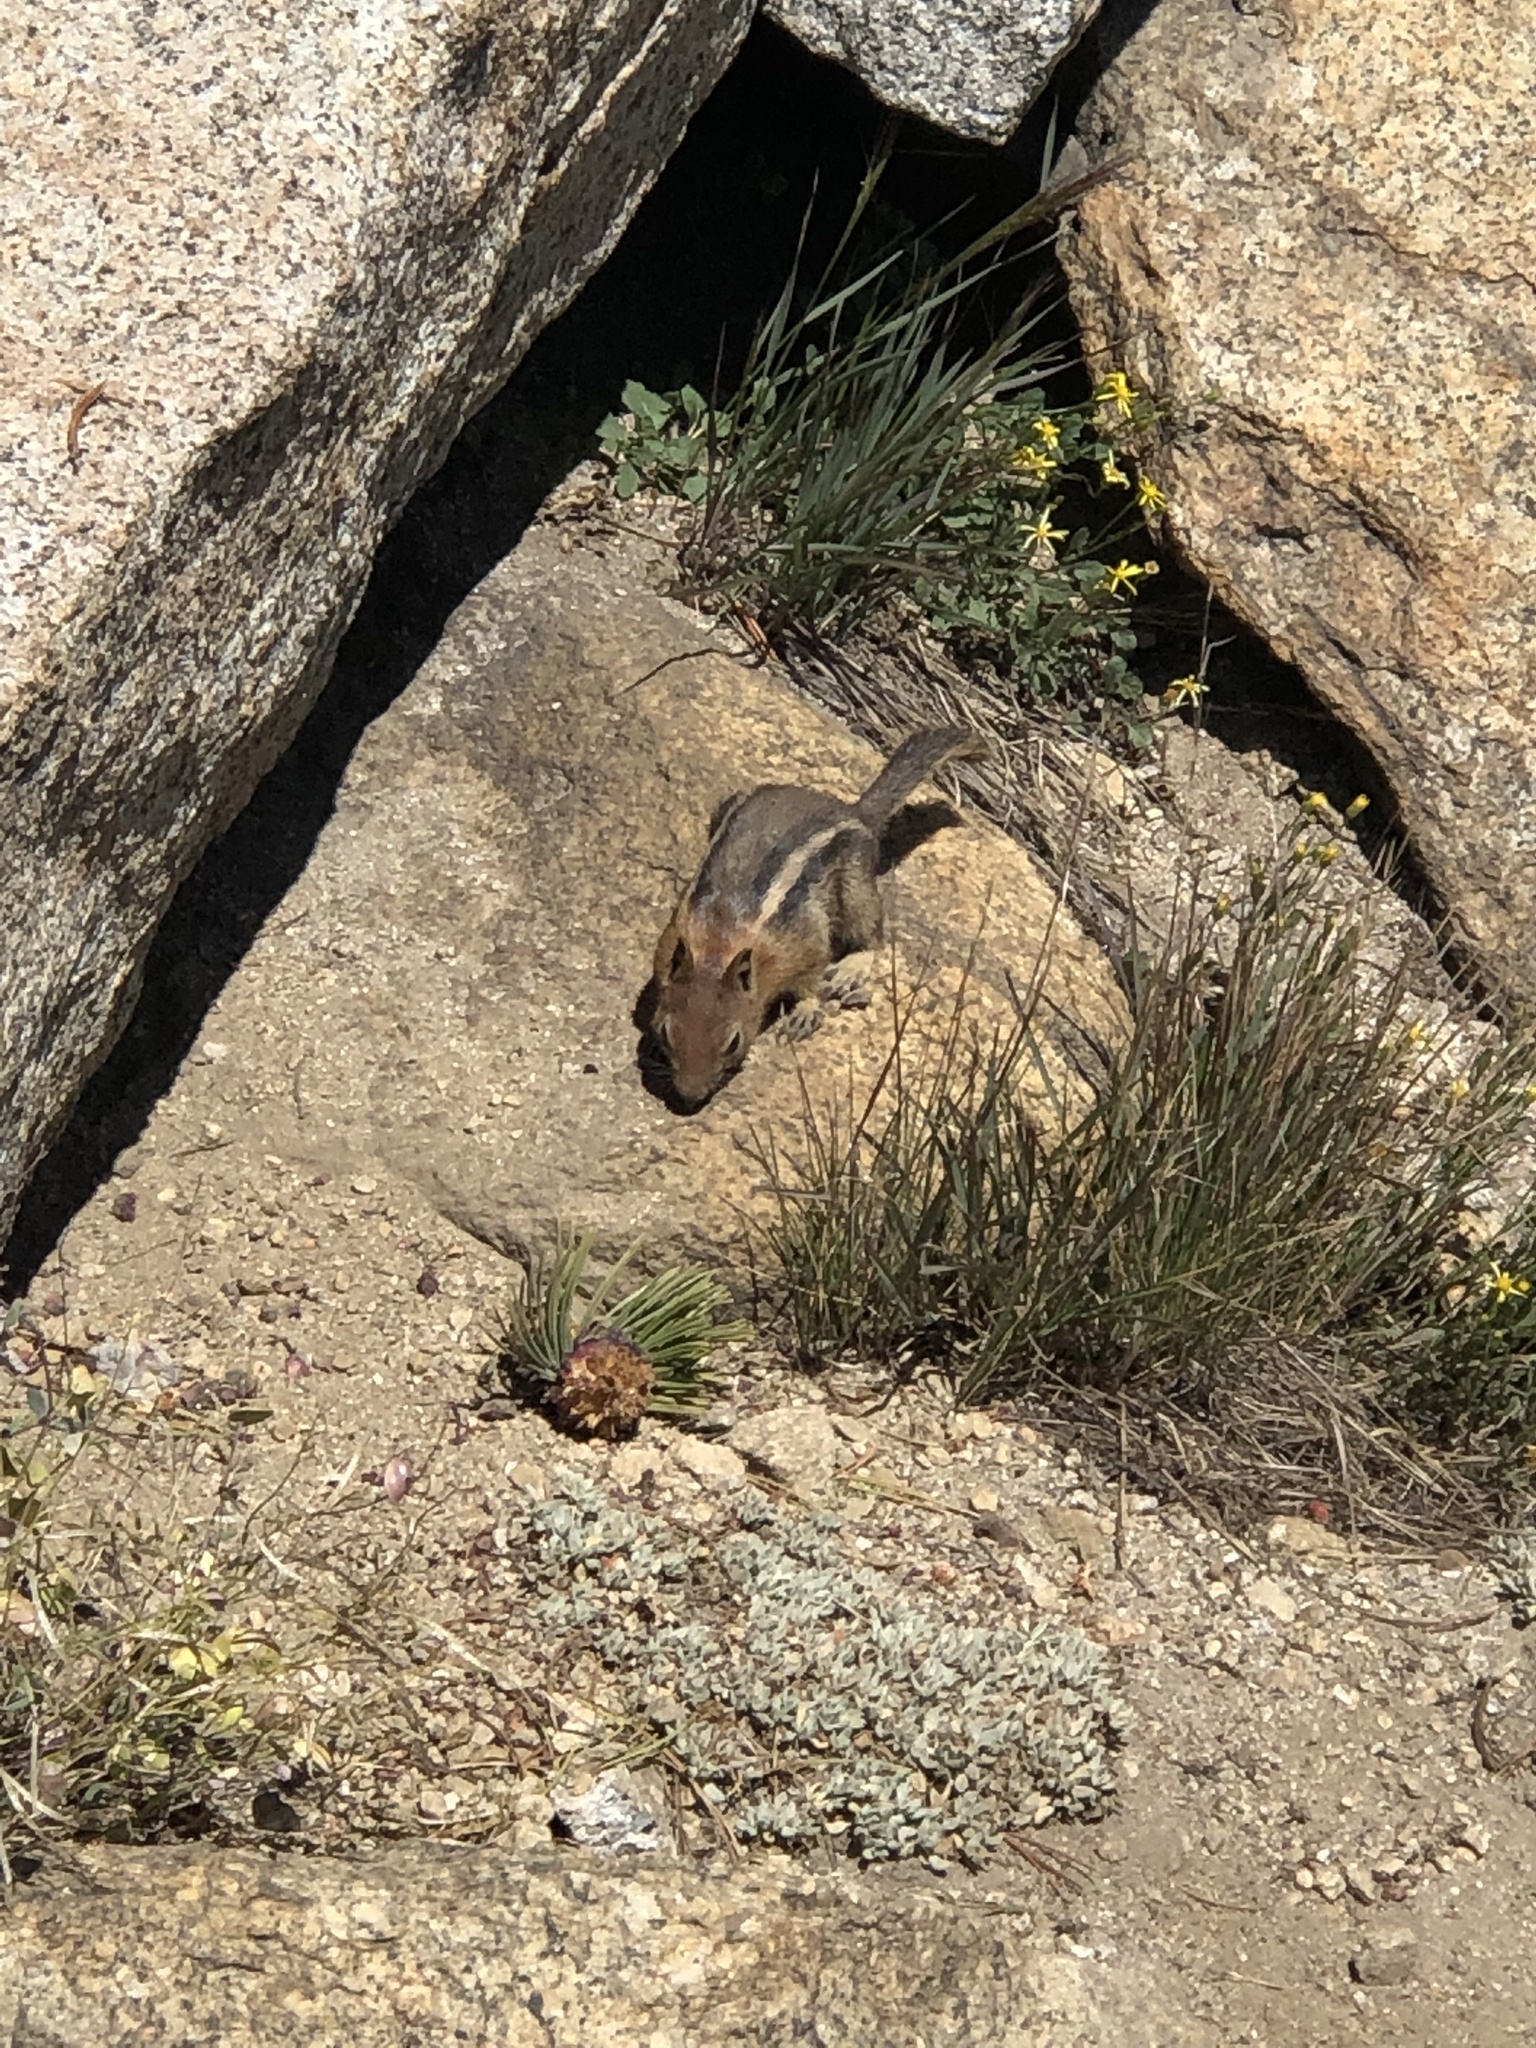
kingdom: Animalia
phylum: Chordata
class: Mammalia
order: Rodentia
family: Sciuridae
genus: Callospermophilus
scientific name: Callospermophilus lateralis
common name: Golden-mantled ground squirrel
